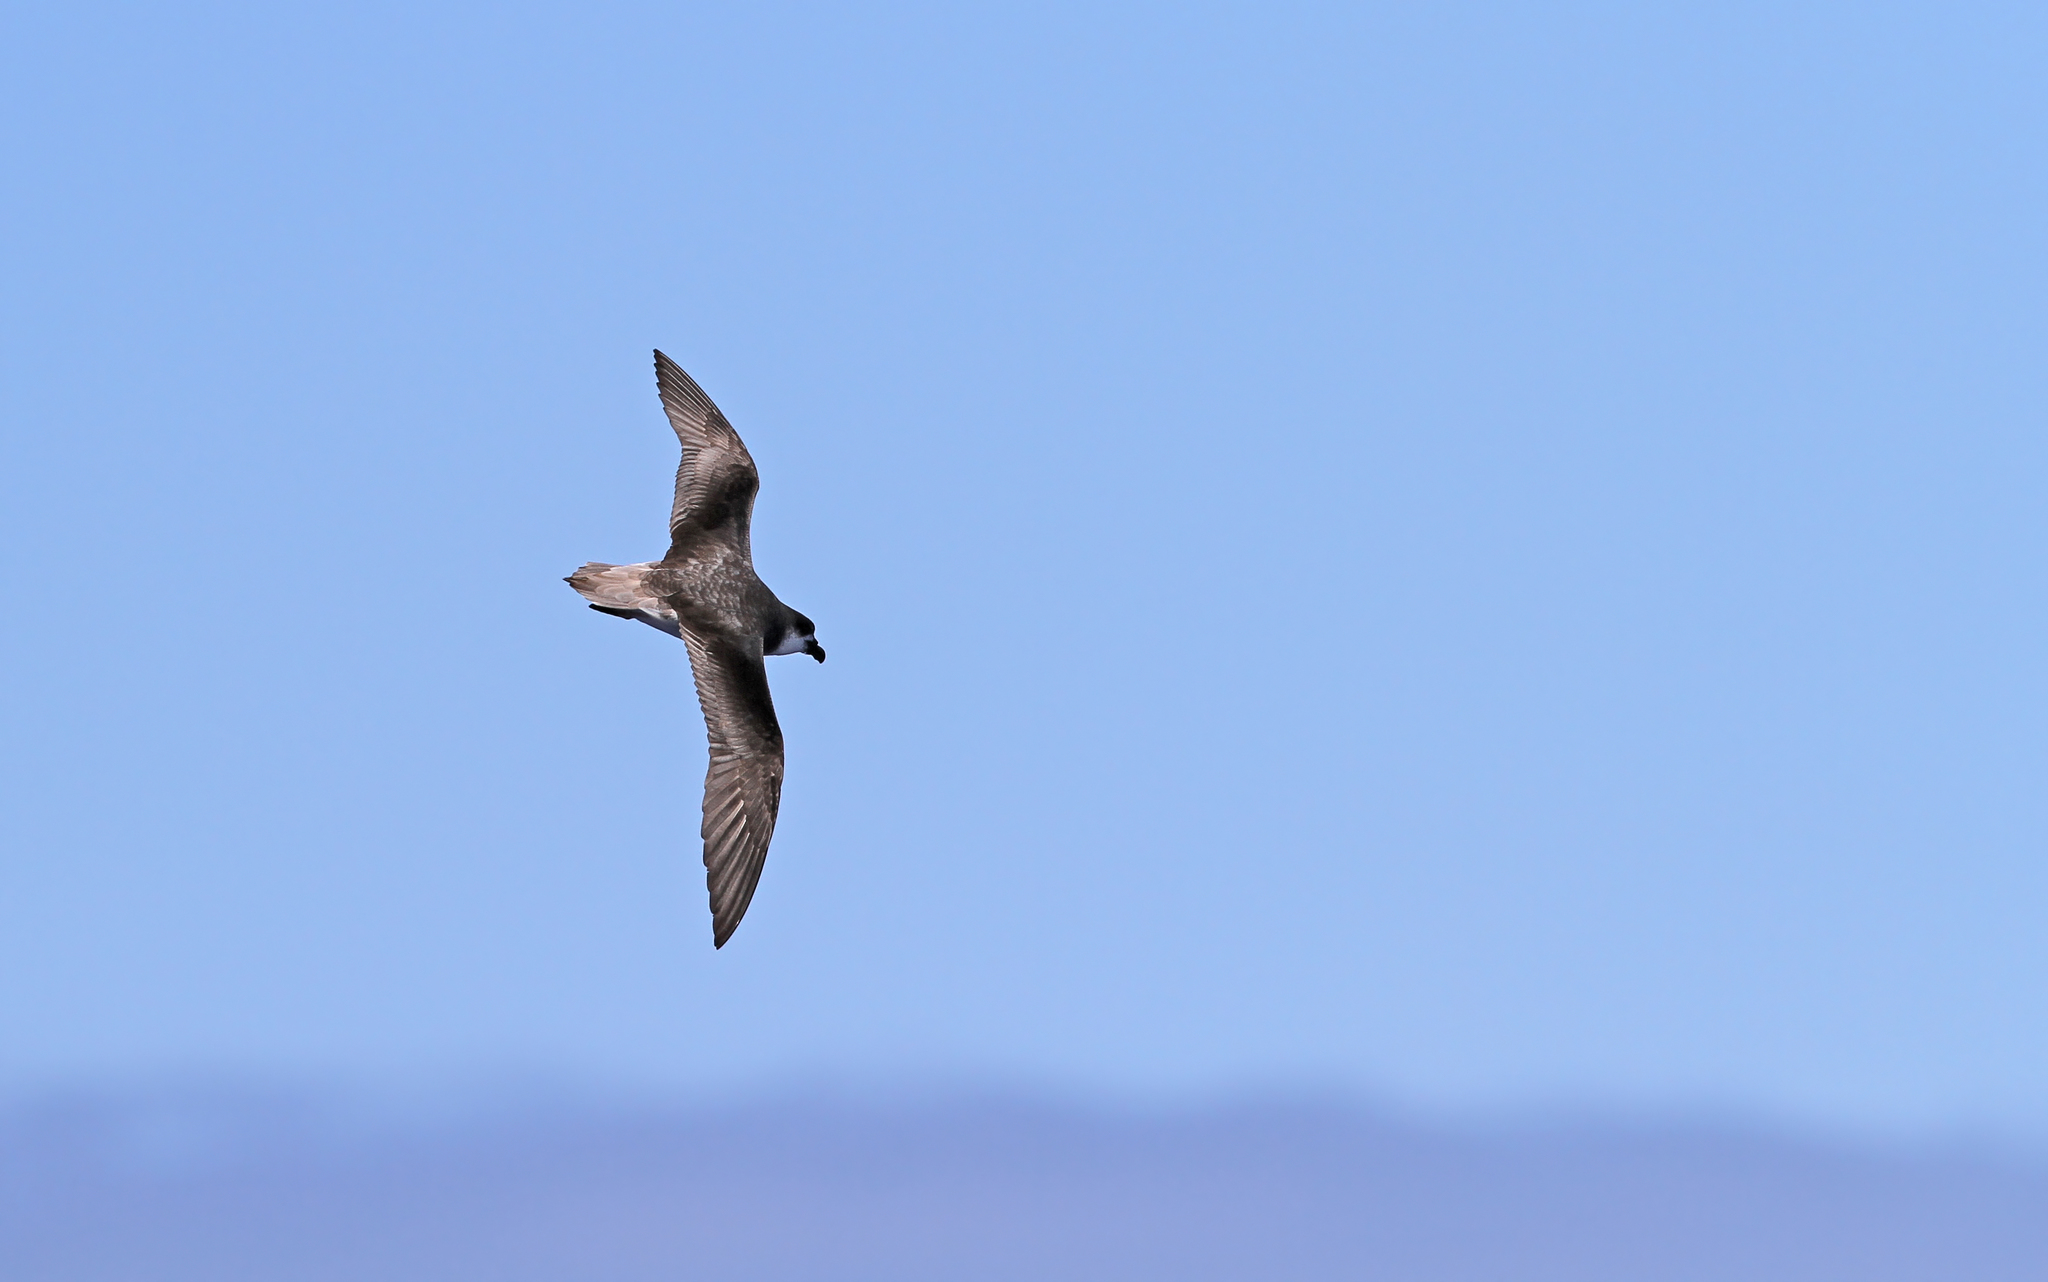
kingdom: Animalia
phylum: Chordata
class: Aves
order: Procellariiformes
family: Procellariidae
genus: Pterodroma
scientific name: Pterodroma feae
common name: Fea's petrel
